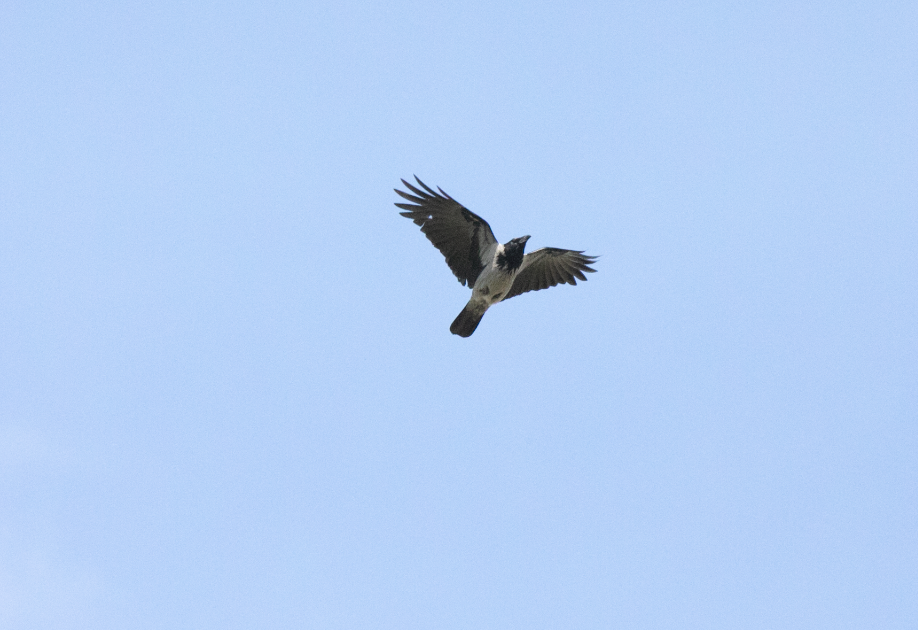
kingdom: Animalia
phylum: Chordata
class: Aves
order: Passeriformes
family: Corvidae
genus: Corvus
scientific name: Corvus cornix
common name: Hooded crow
